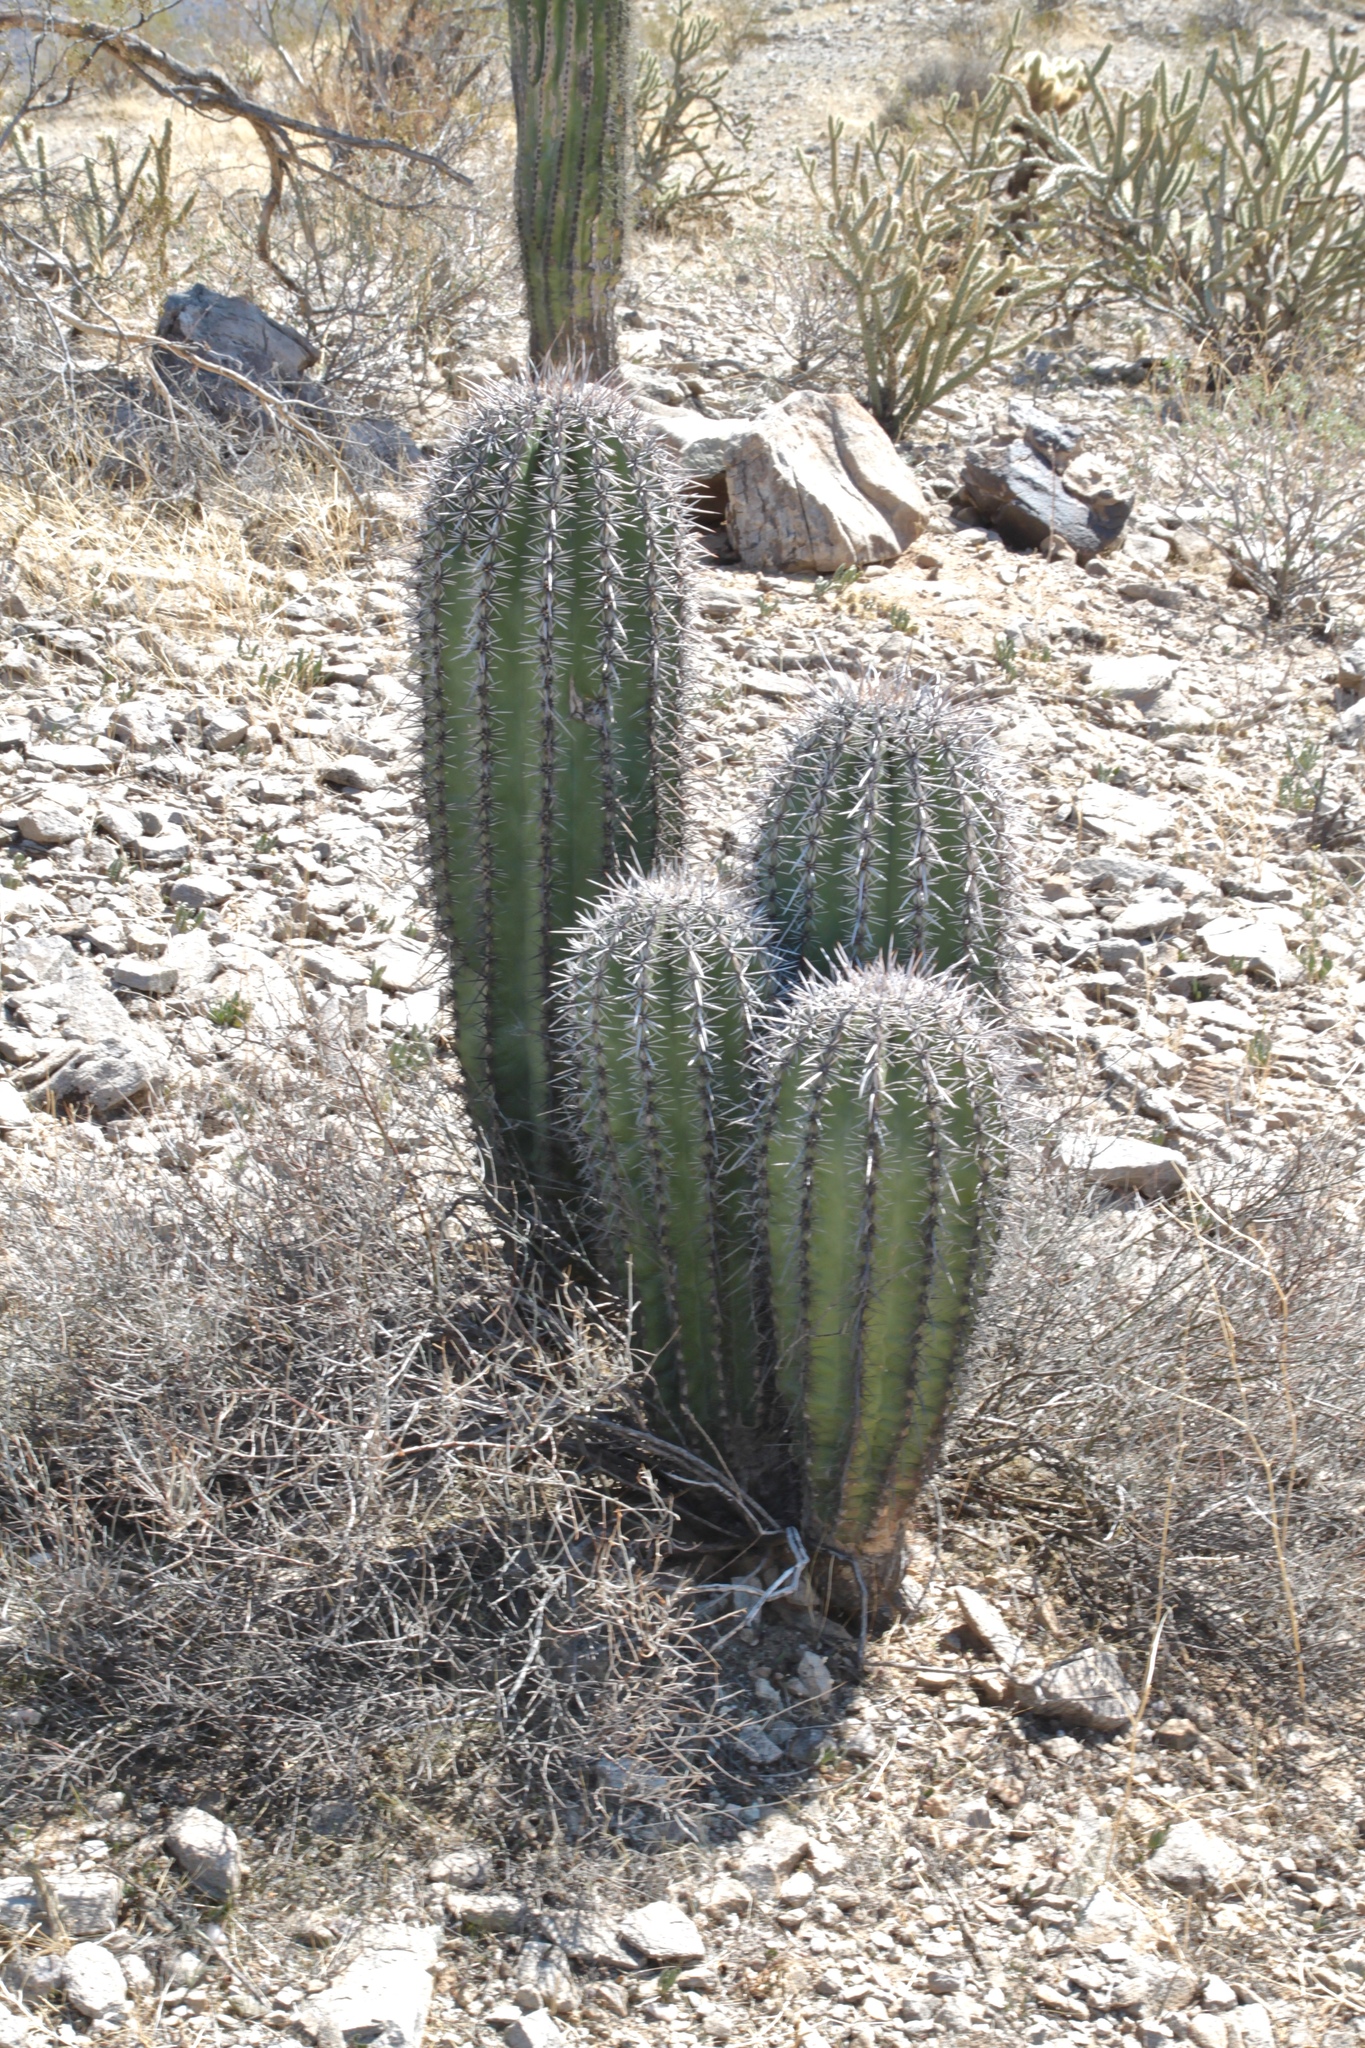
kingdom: Plantae
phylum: Tracheophyta
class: Magnoliopsida
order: Caryophyllales
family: Cactaceae
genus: Carnegiea
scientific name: Carnegiea gigantea
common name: Saguaro
